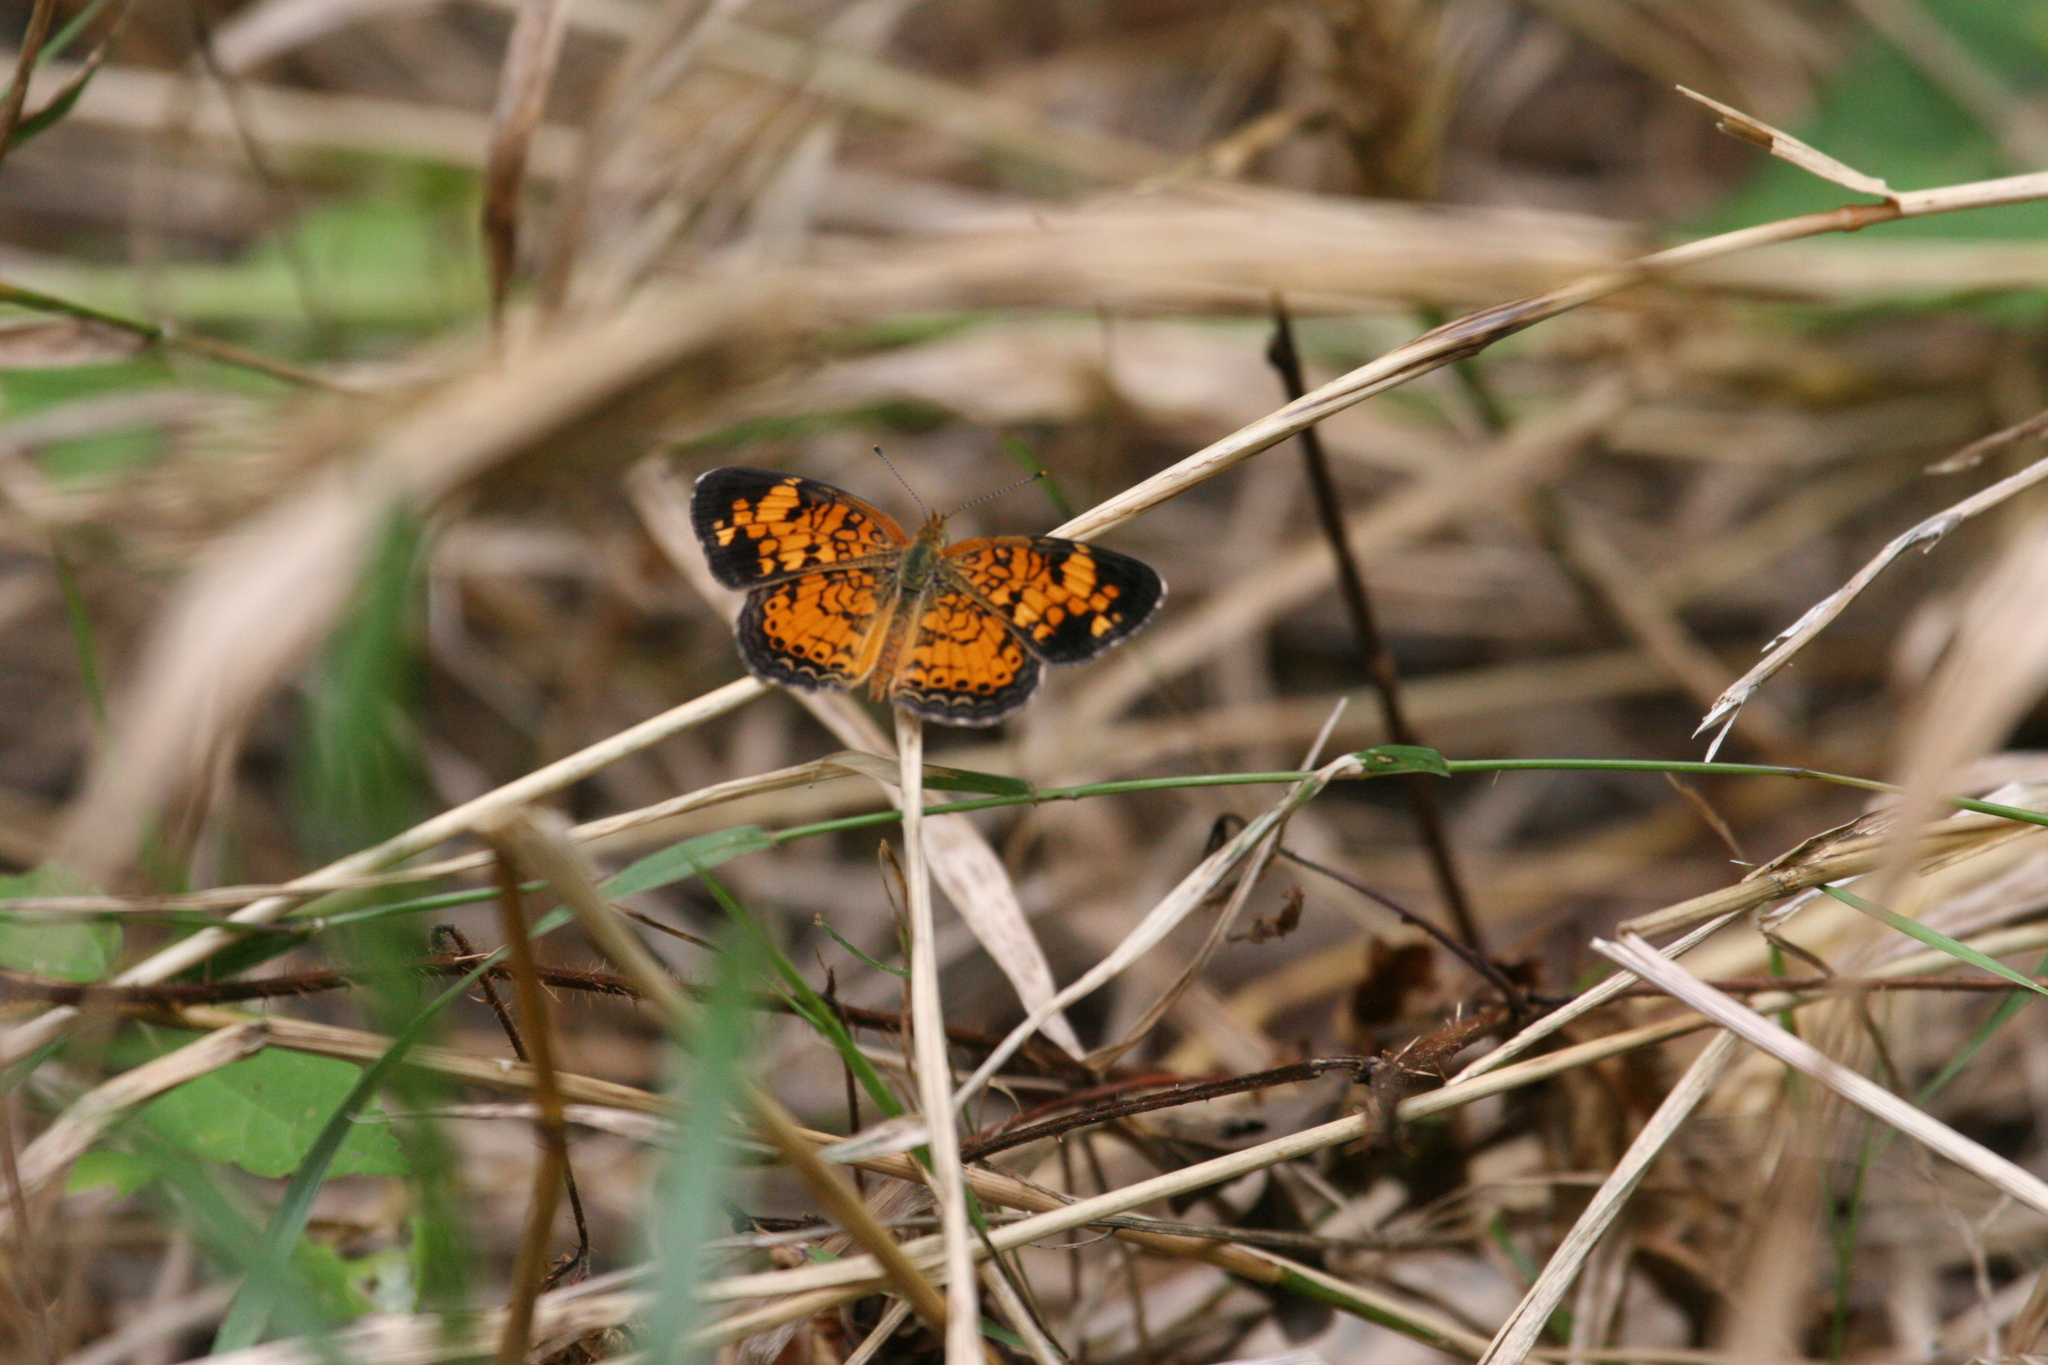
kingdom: Animalia
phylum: Arthropoda
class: Insecta
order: Lepidoptera
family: Nymphalidae
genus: Phyciodes
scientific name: Phyciodes tharos
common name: Pearl crescent
